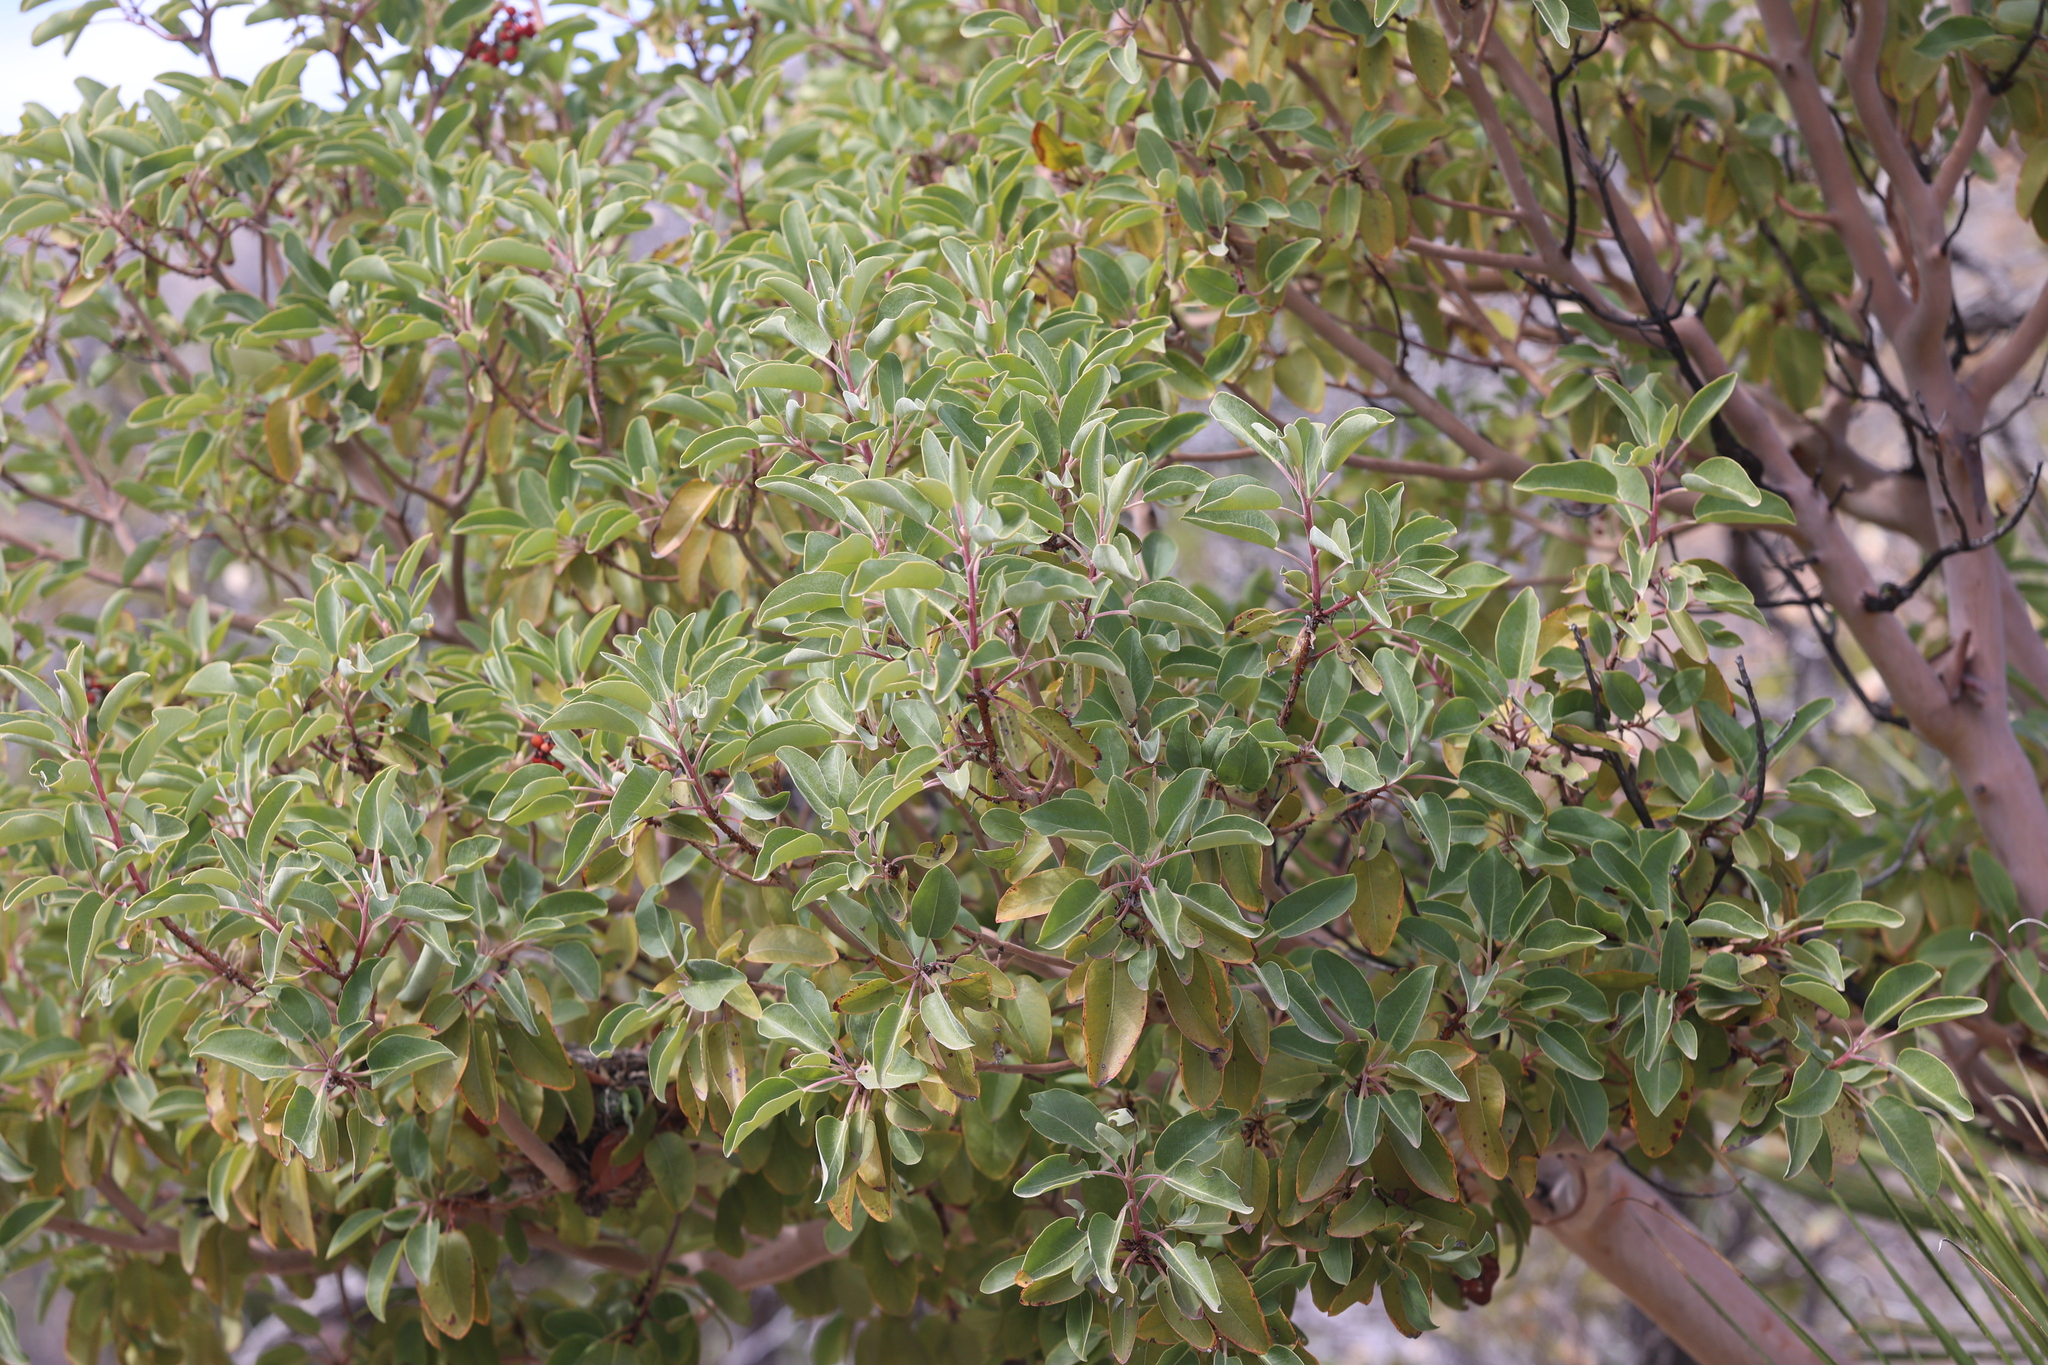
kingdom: Plantae
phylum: Tracheophyta
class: Magnoliopsida
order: Ericales
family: Ericaceae
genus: Arbutus
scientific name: Arbutus xalapensis
